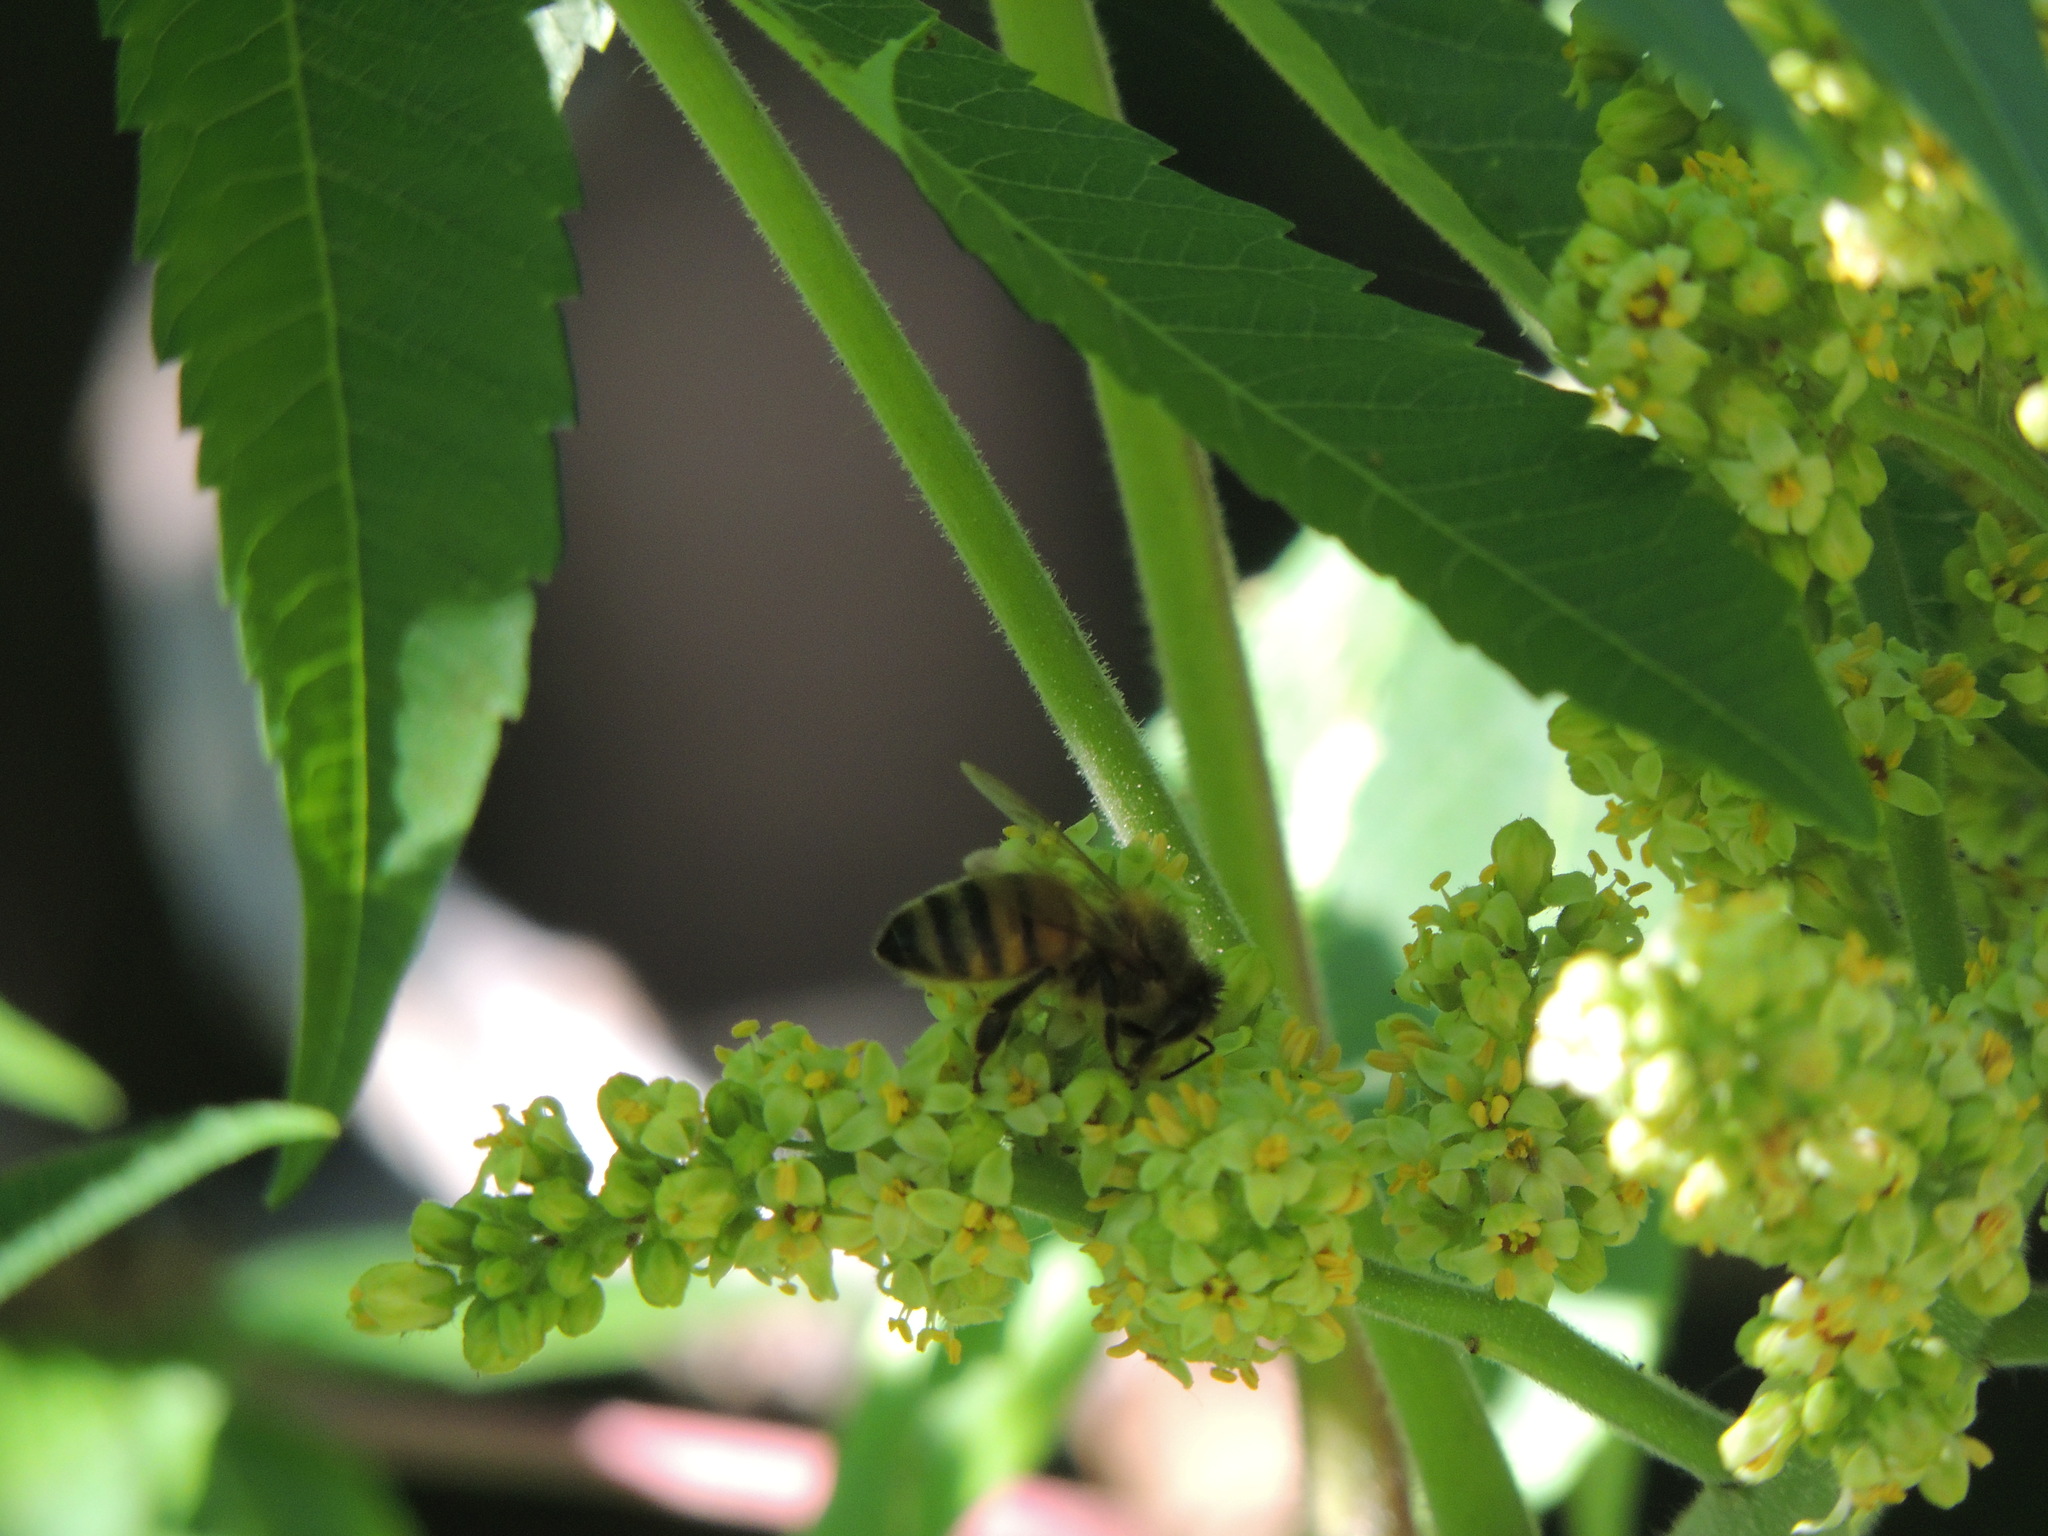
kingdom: Animalia
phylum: Arthropoda
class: Insecta
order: Hymenoptera
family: Apidae
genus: Apis
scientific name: Apis mellifera
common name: Honey bee
